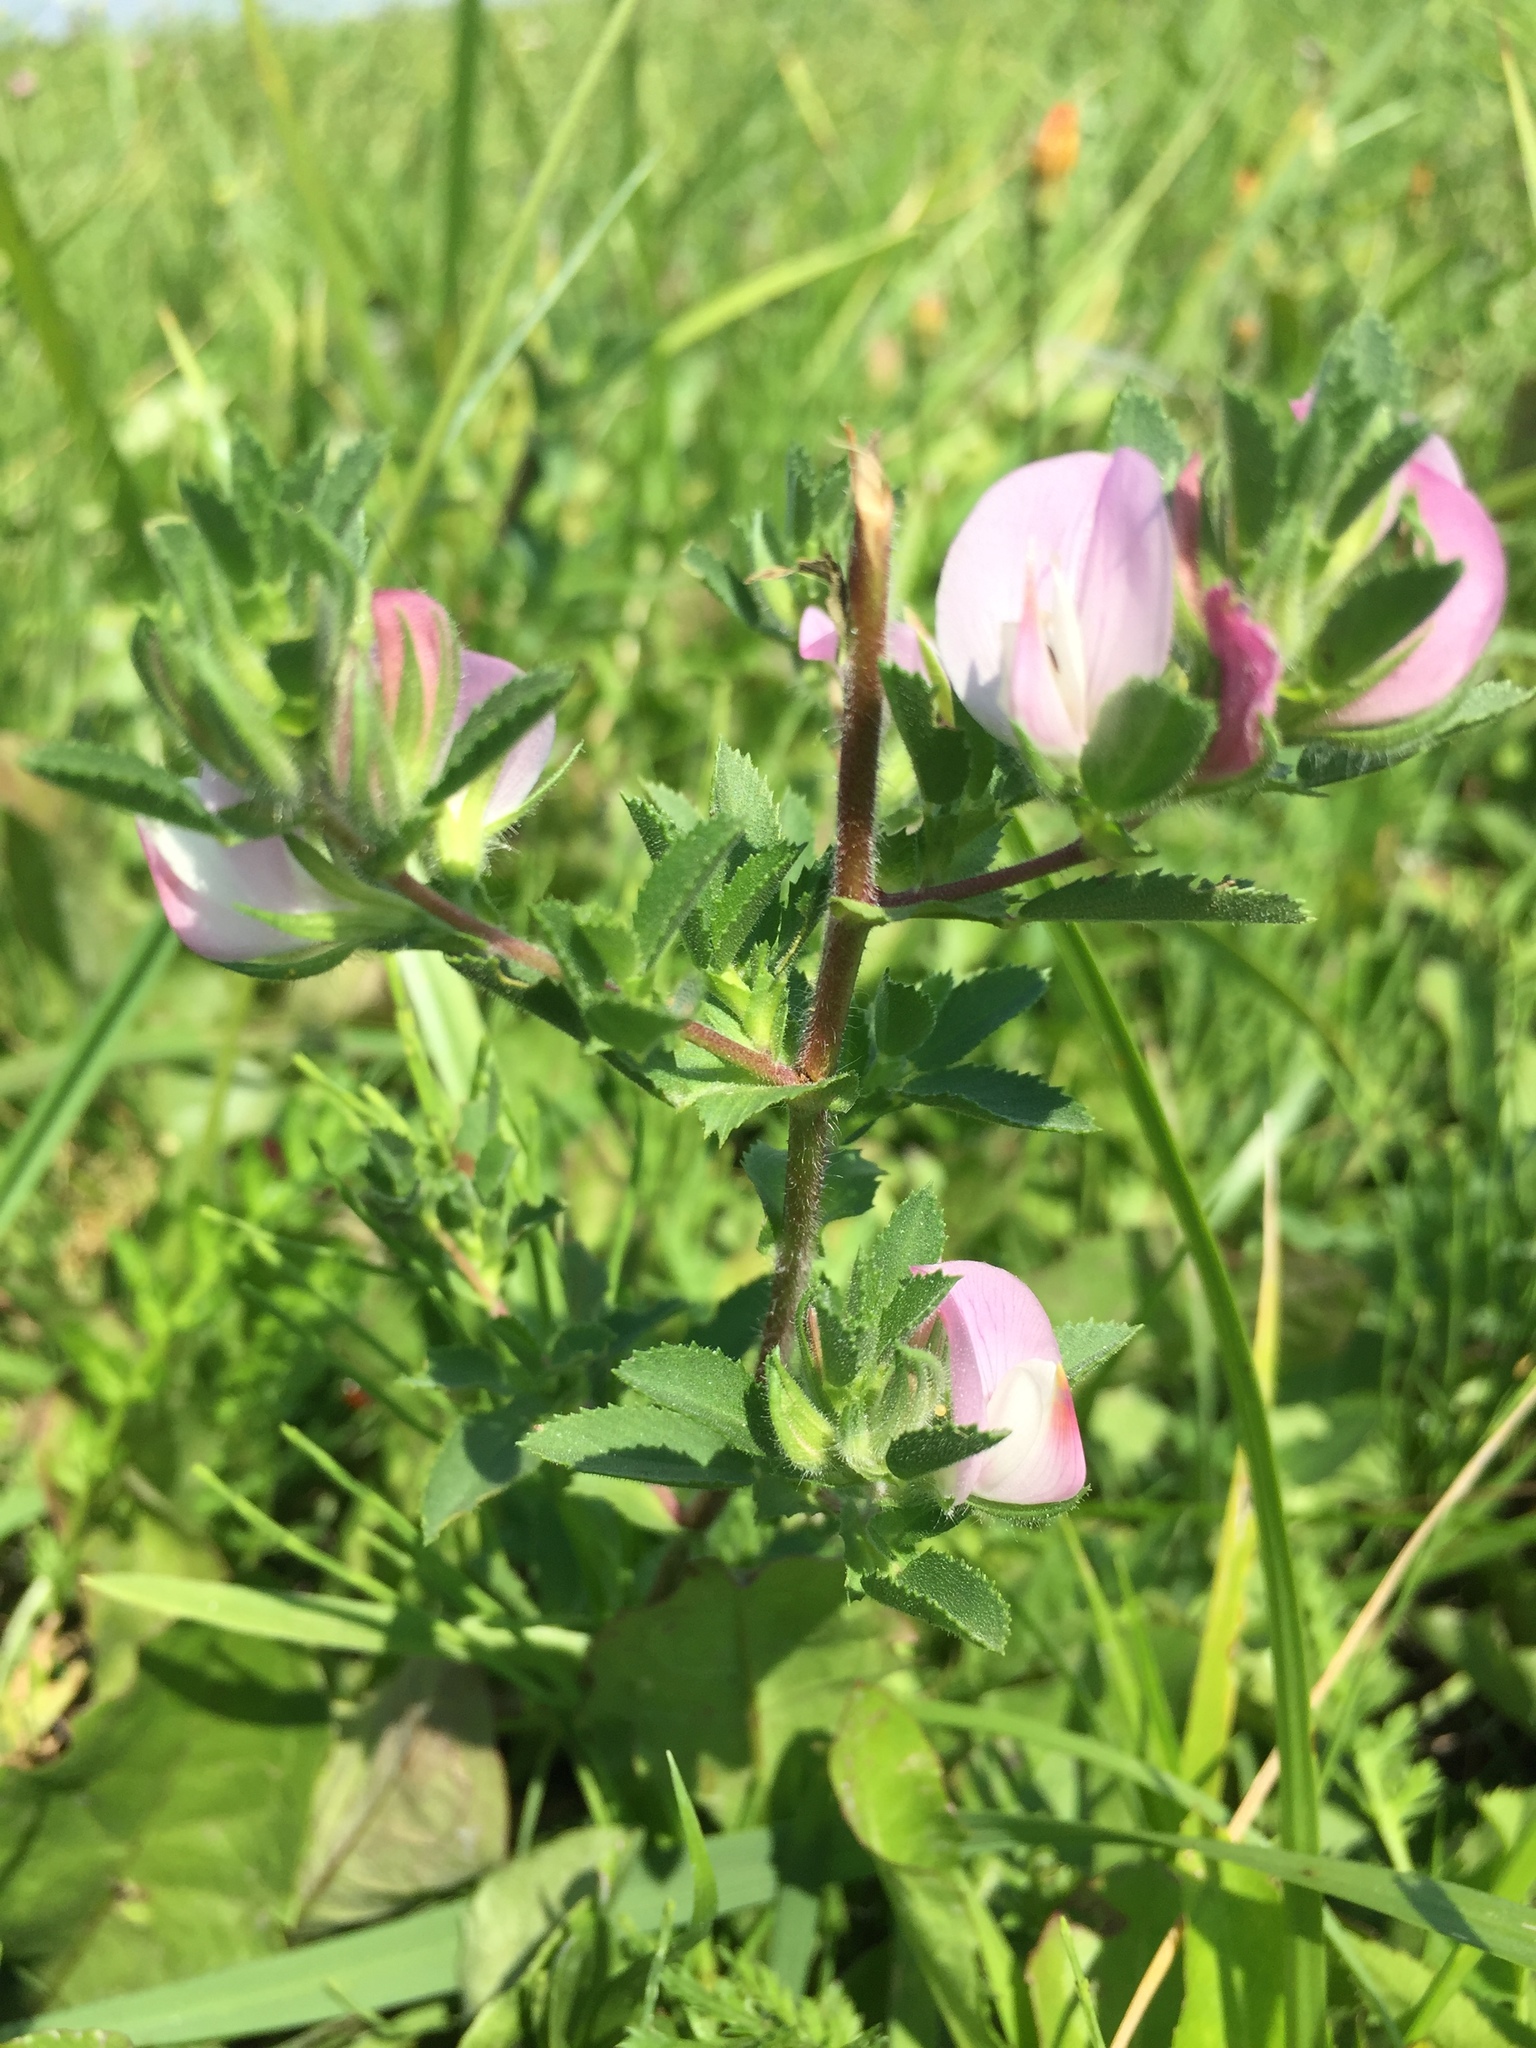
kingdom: Plantae
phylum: Tracheophyta
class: Magnoliopsida
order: Fabales
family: Fabaceae
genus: Ononis
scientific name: Ononis arvensis
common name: Field restharrow
